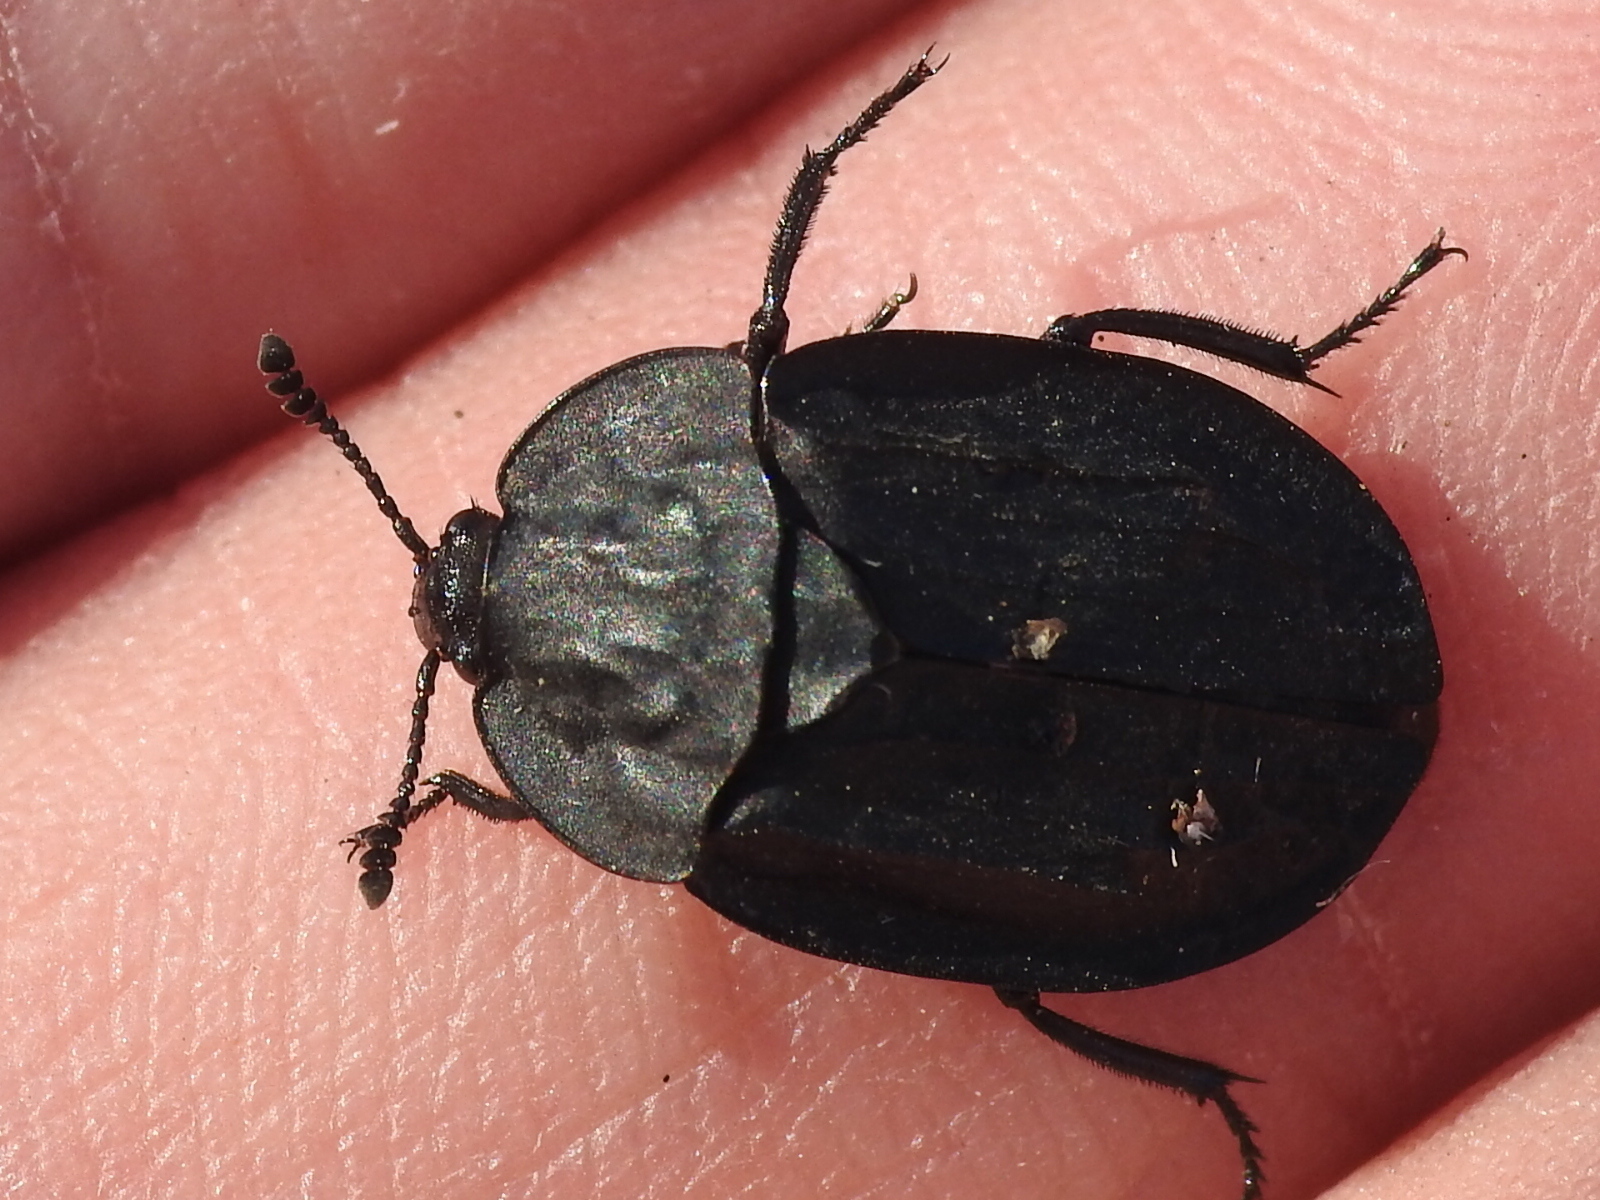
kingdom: Animalia
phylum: Arthropoda
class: Insecta
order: Coleoptera
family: Staphylinidae
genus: Oiceoptoma
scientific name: Oiceoptoma inaequale
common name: Ridged carrion beetle
